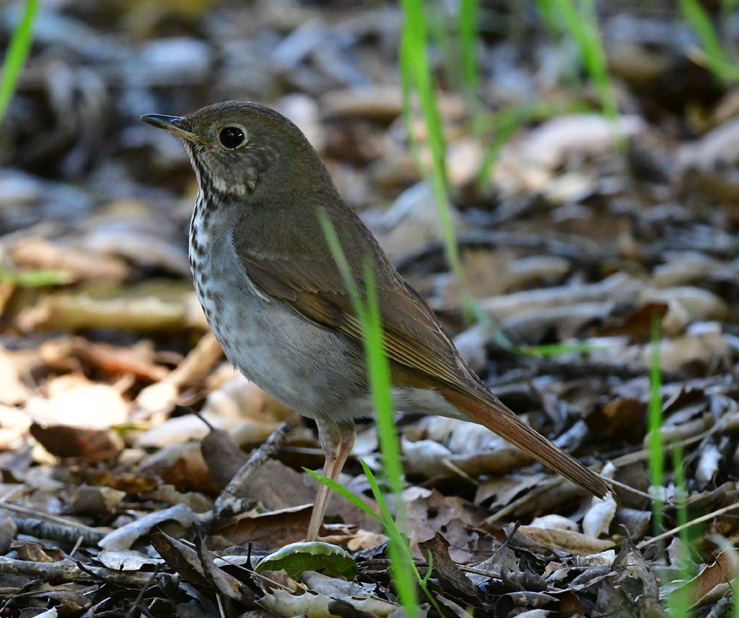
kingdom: Animalia
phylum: Chordata
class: Aves
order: Passeriformes
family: Turdidae
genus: Catharus
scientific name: Catharus guttatus
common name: Hermit thrush
